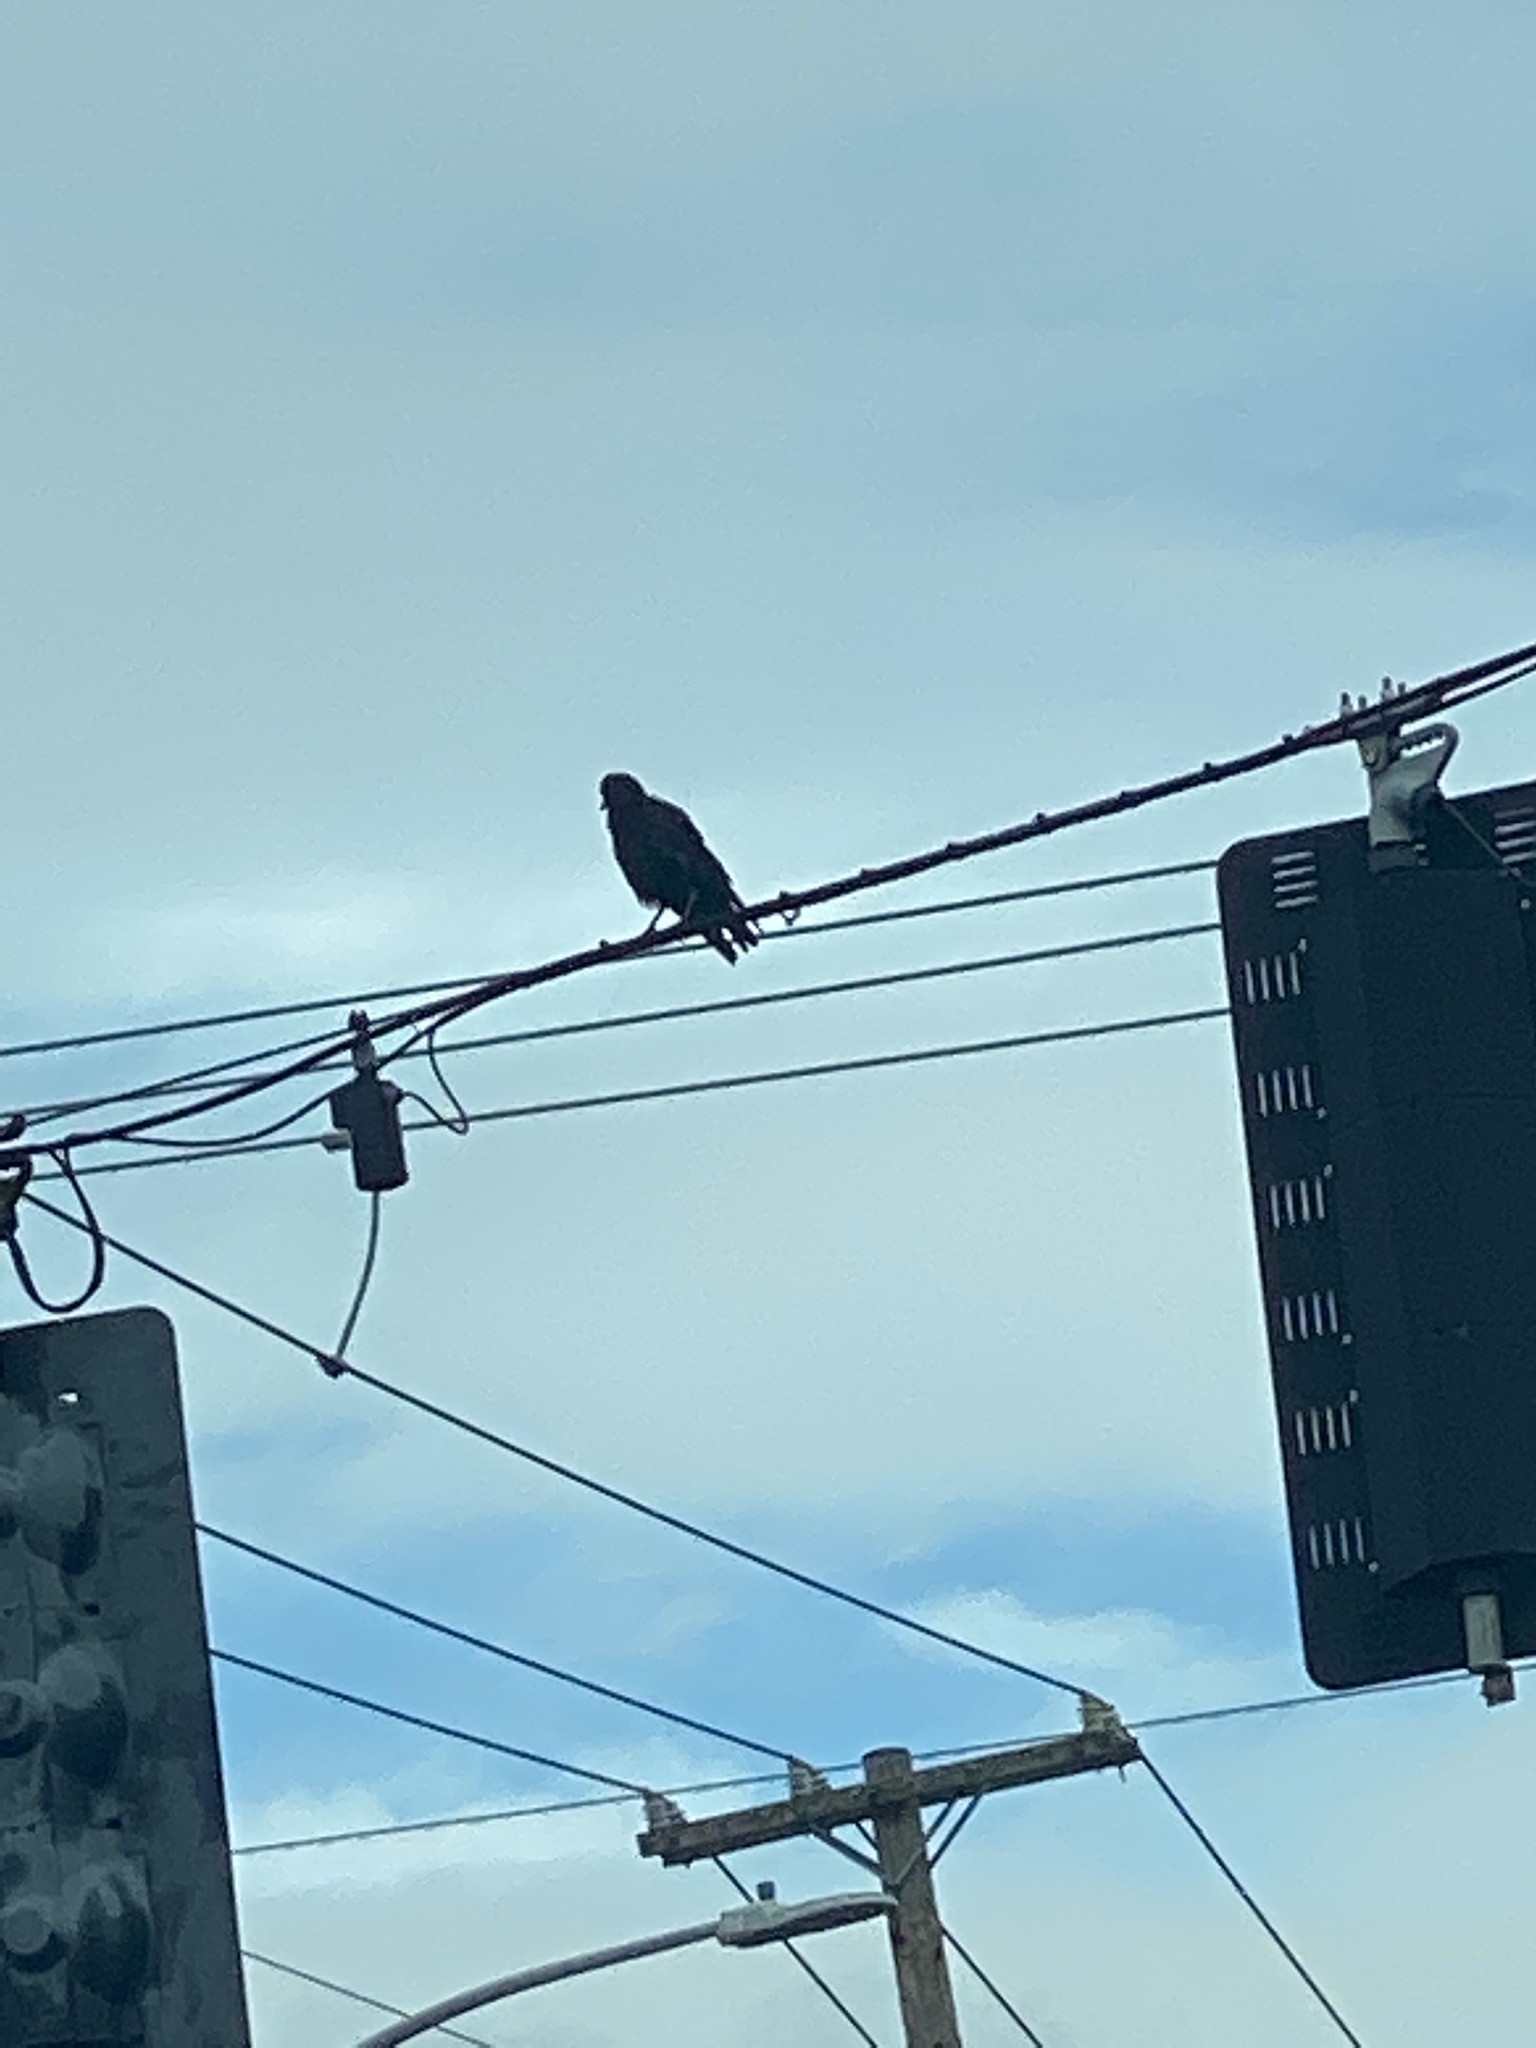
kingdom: Animalia
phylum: Chordata
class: Aves
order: Passeriformes
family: Corvidae
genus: Corvus
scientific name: Corvus brachyrhynchos
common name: American crow
